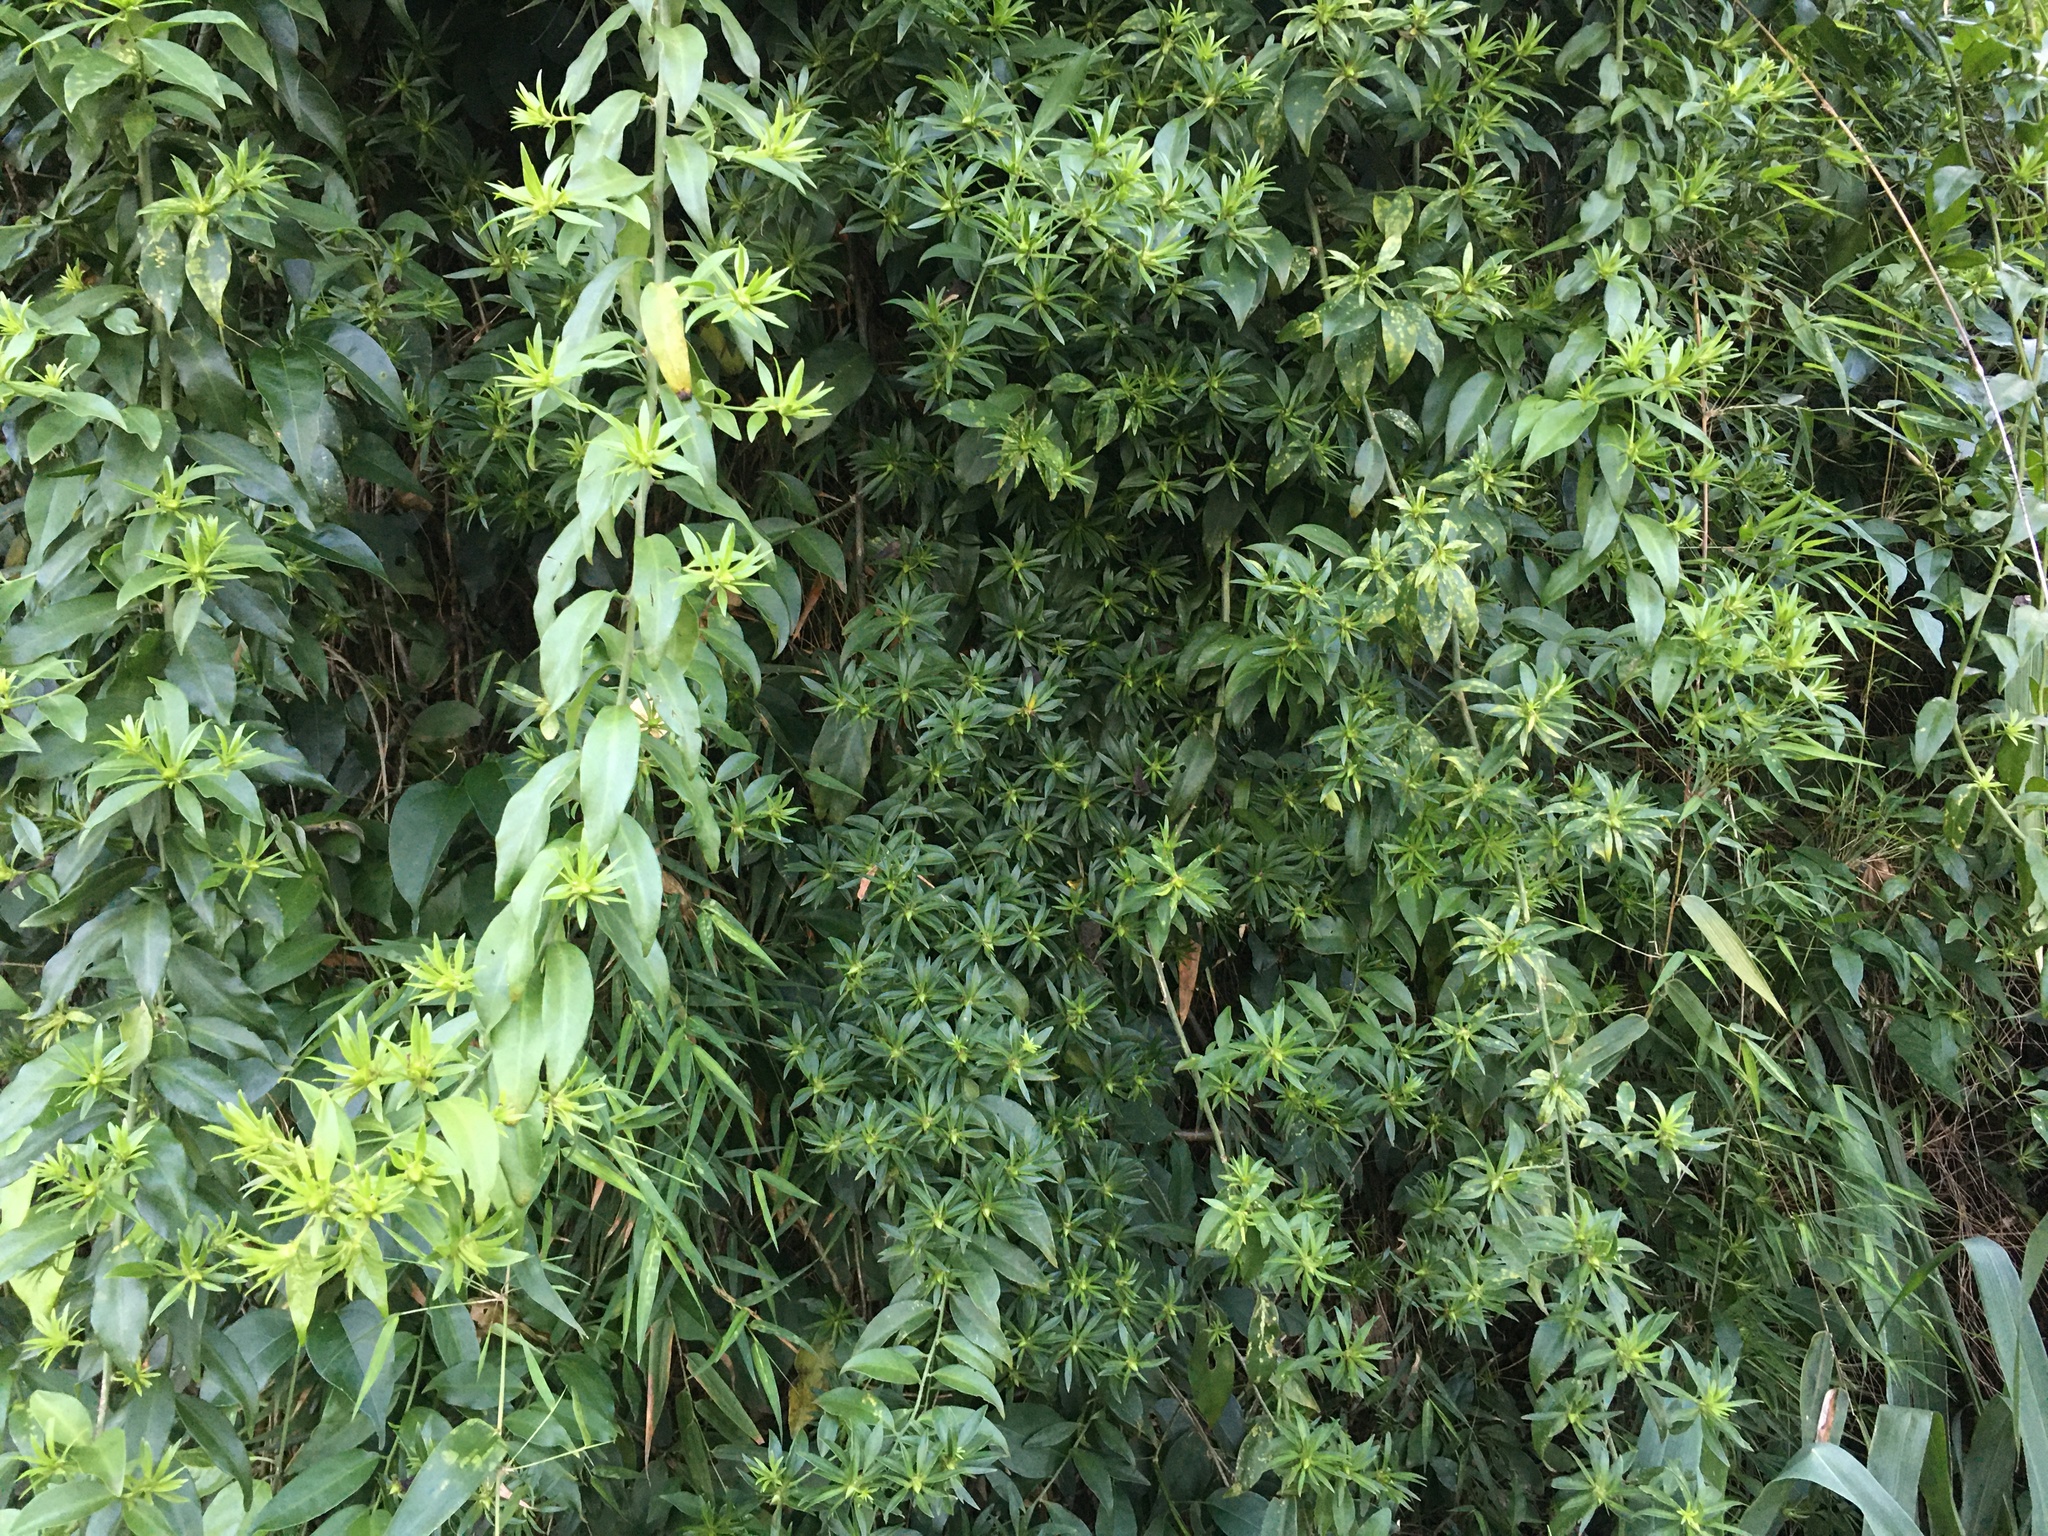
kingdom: Plantae
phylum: Tracheophyta
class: Magnoliopsida
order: Caryophyllales
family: Cactaceae
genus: Pereskia
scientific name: Pereskia aculeata
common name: Barbados gooseberry
